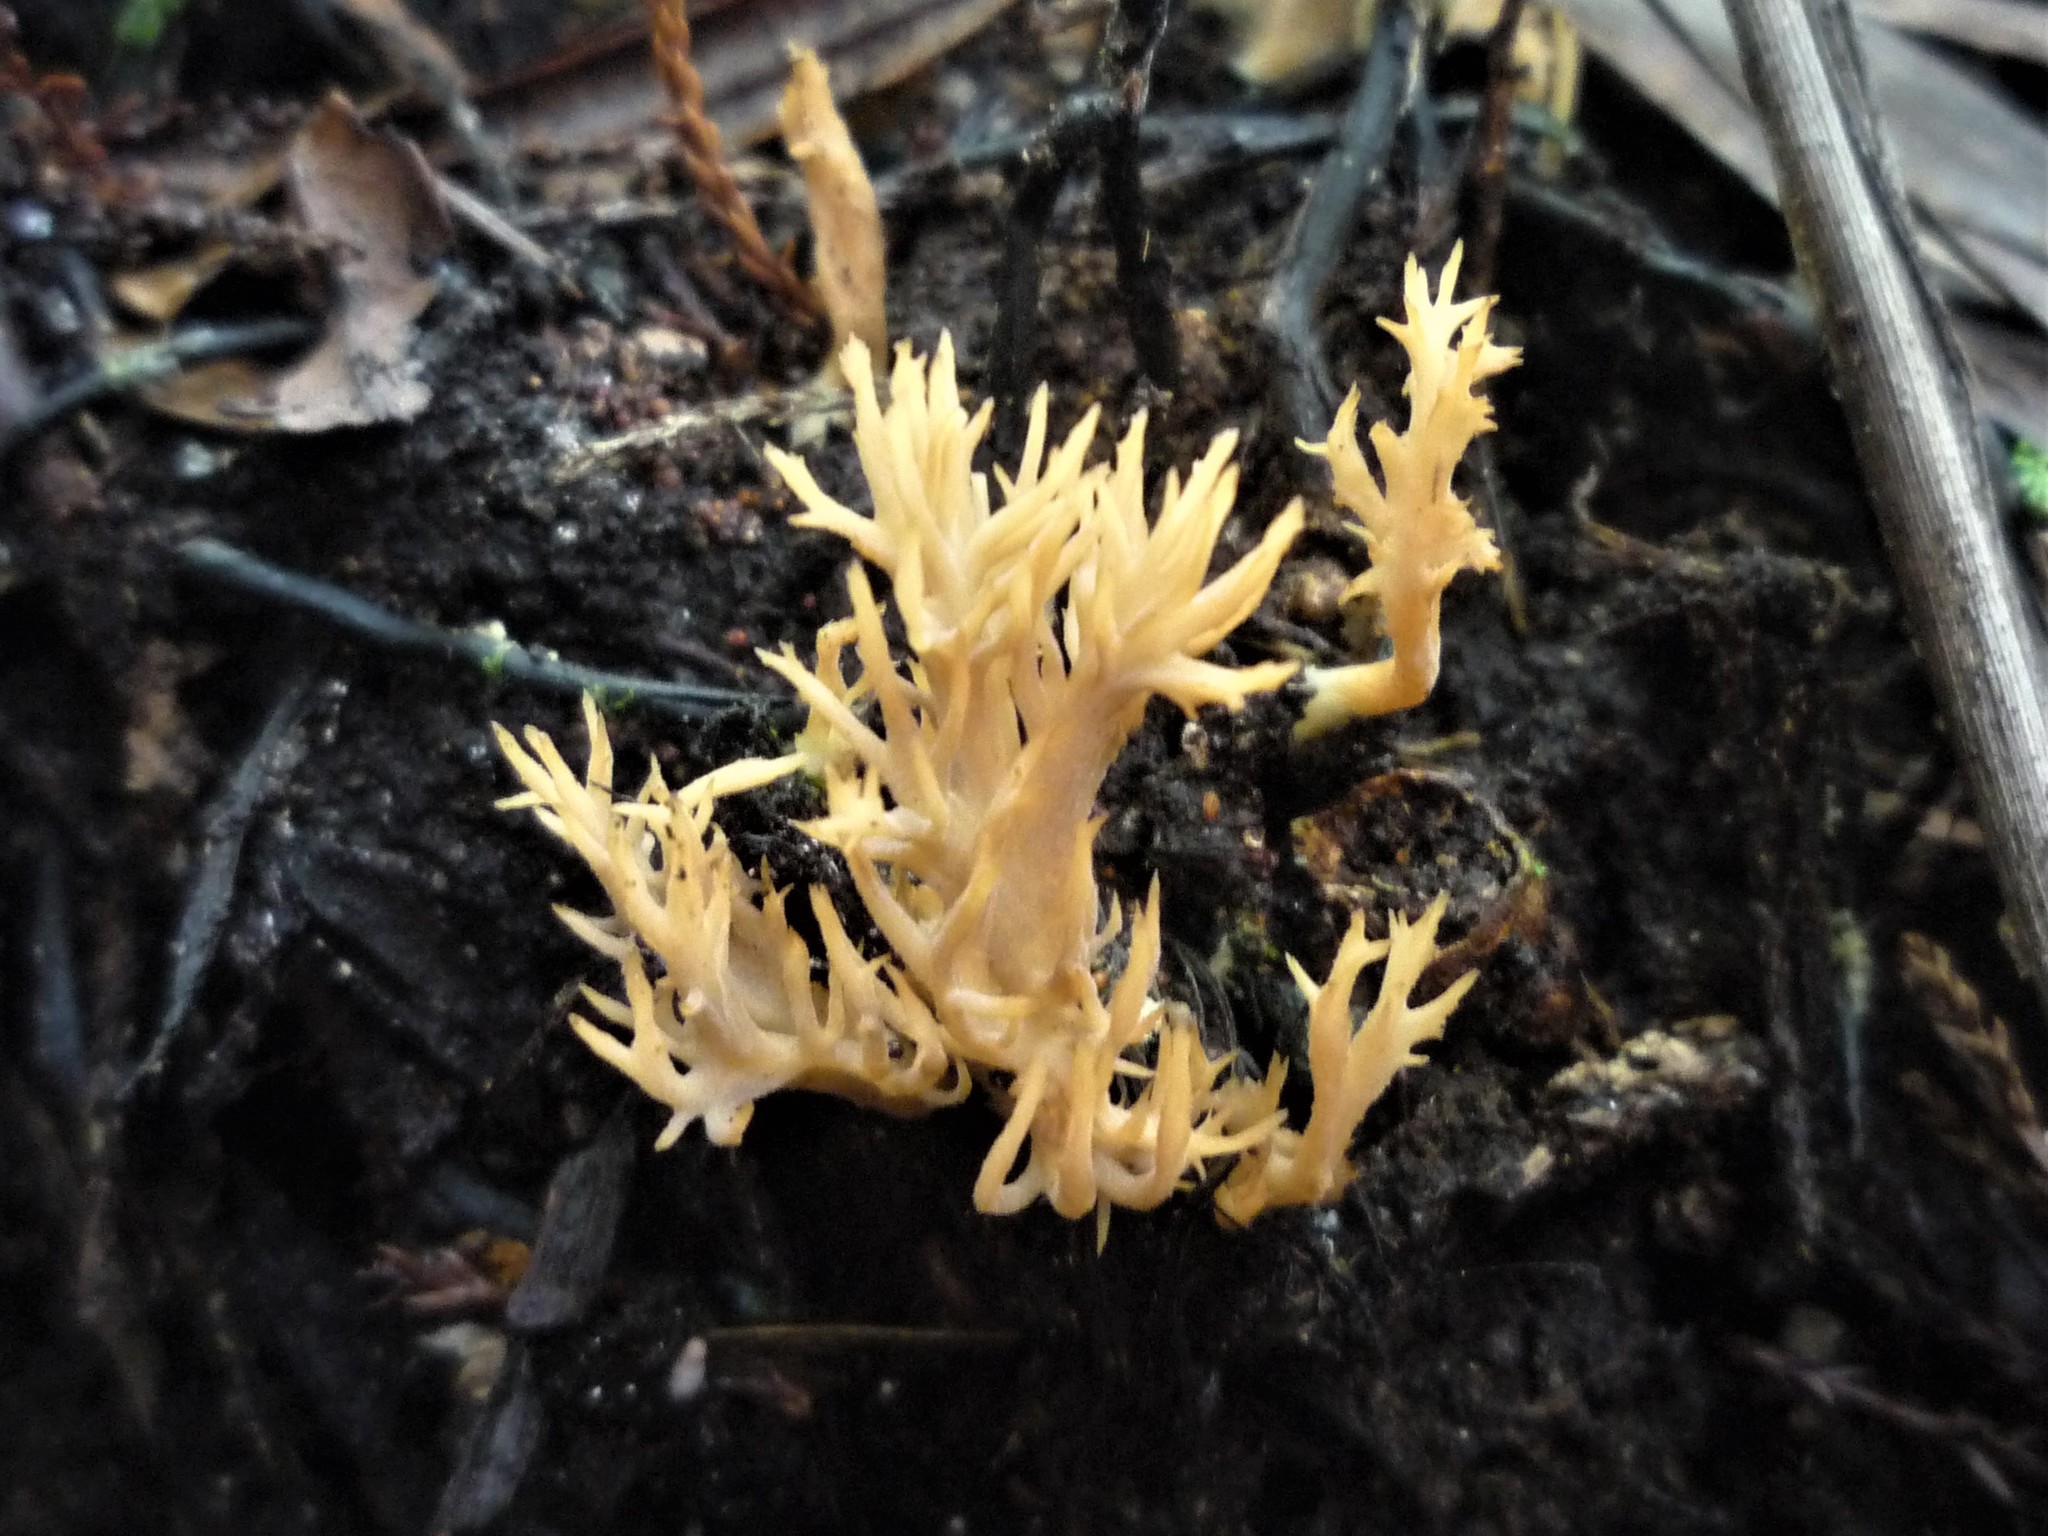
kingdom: Fungi
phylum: Basidiomycota
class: Agaricomycetes
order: Cantharellales
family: Hydnaceae
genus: Clavulina
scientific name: Clavulina
